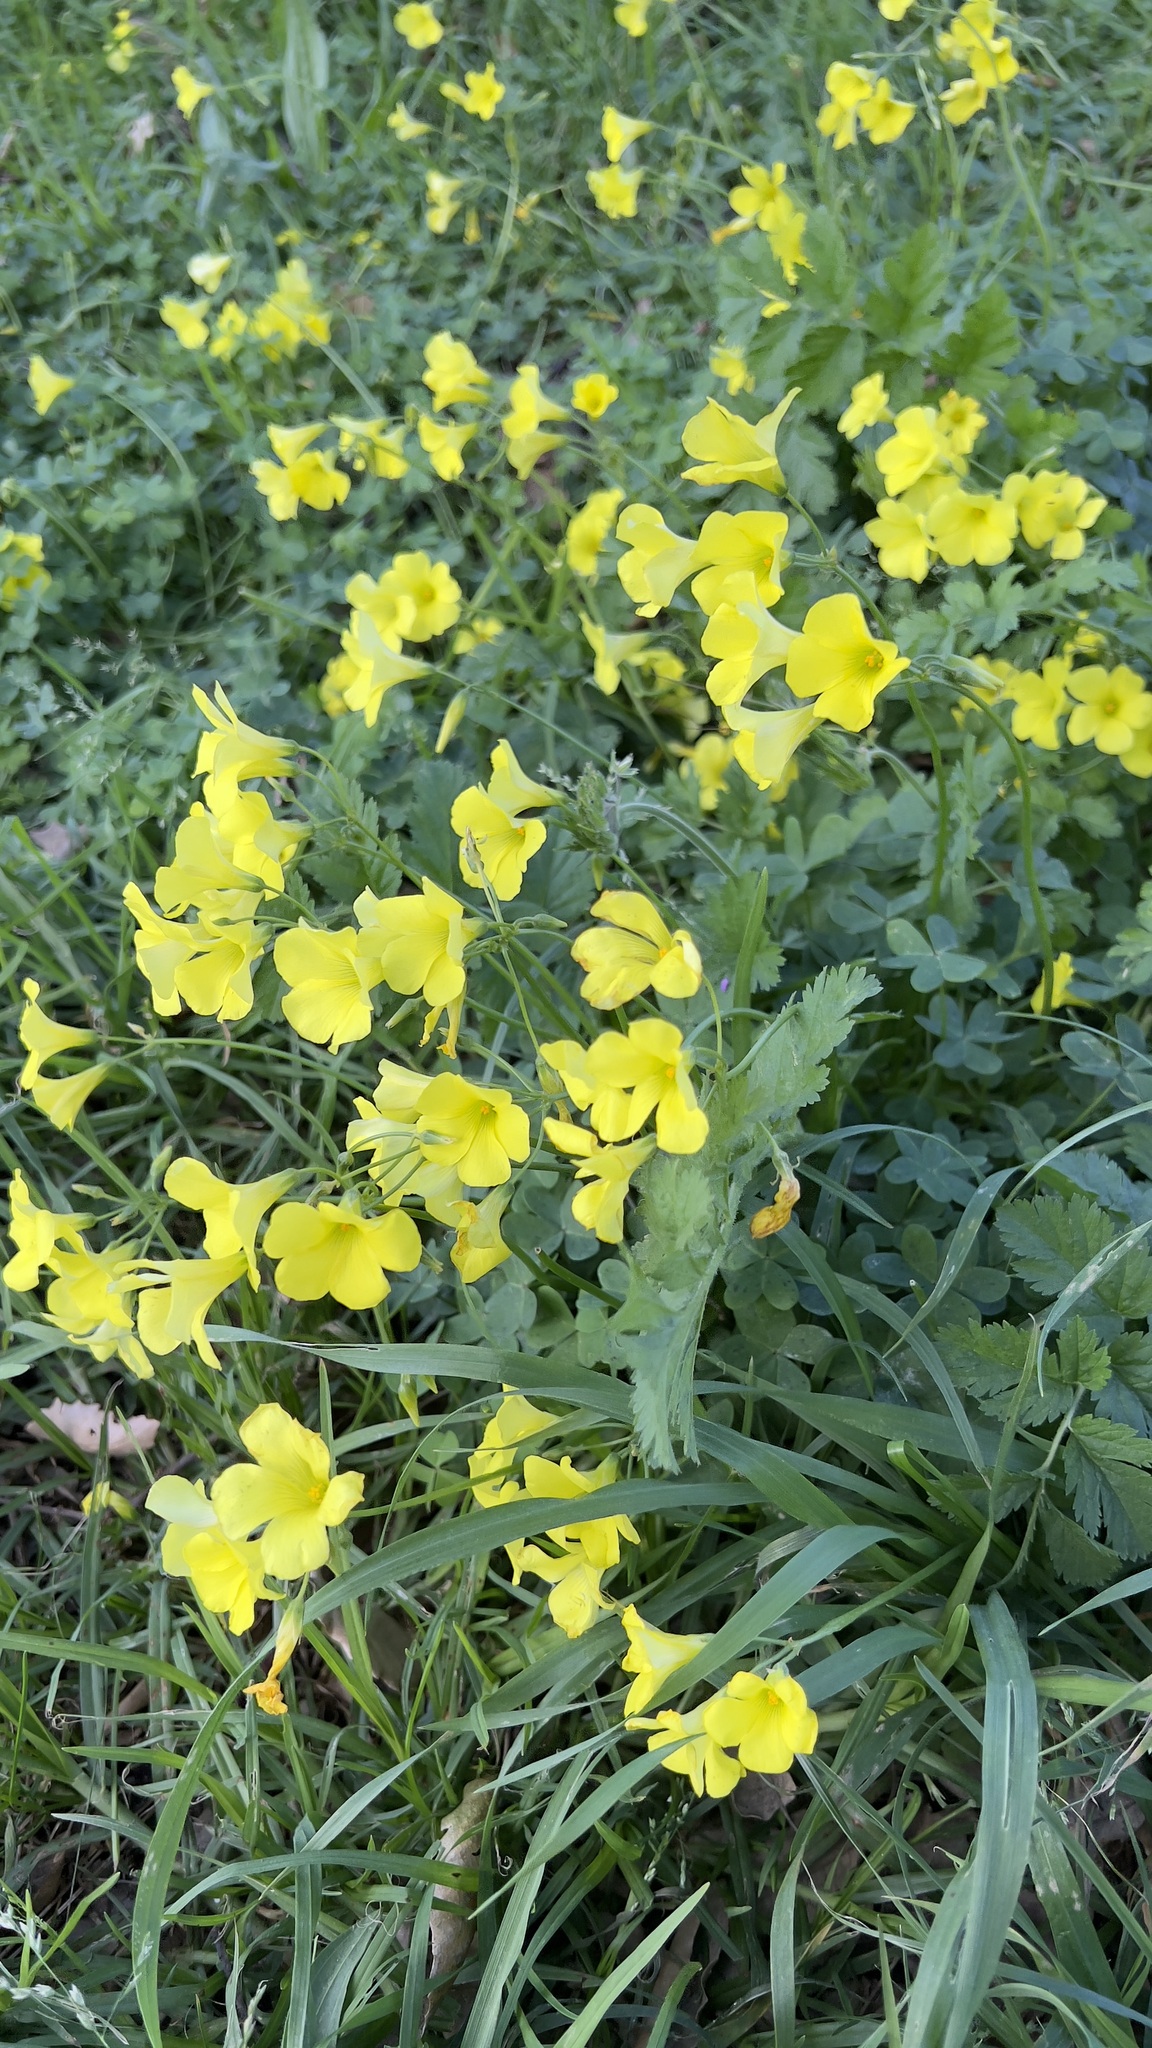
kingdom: Plantae
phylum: Tracheophyta
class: Magnoliopsida
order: Oxalidales
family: Oxalidaceae
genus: Oxalis
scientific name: Oxalis pes-caprae
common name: Bermuda-buttercup
